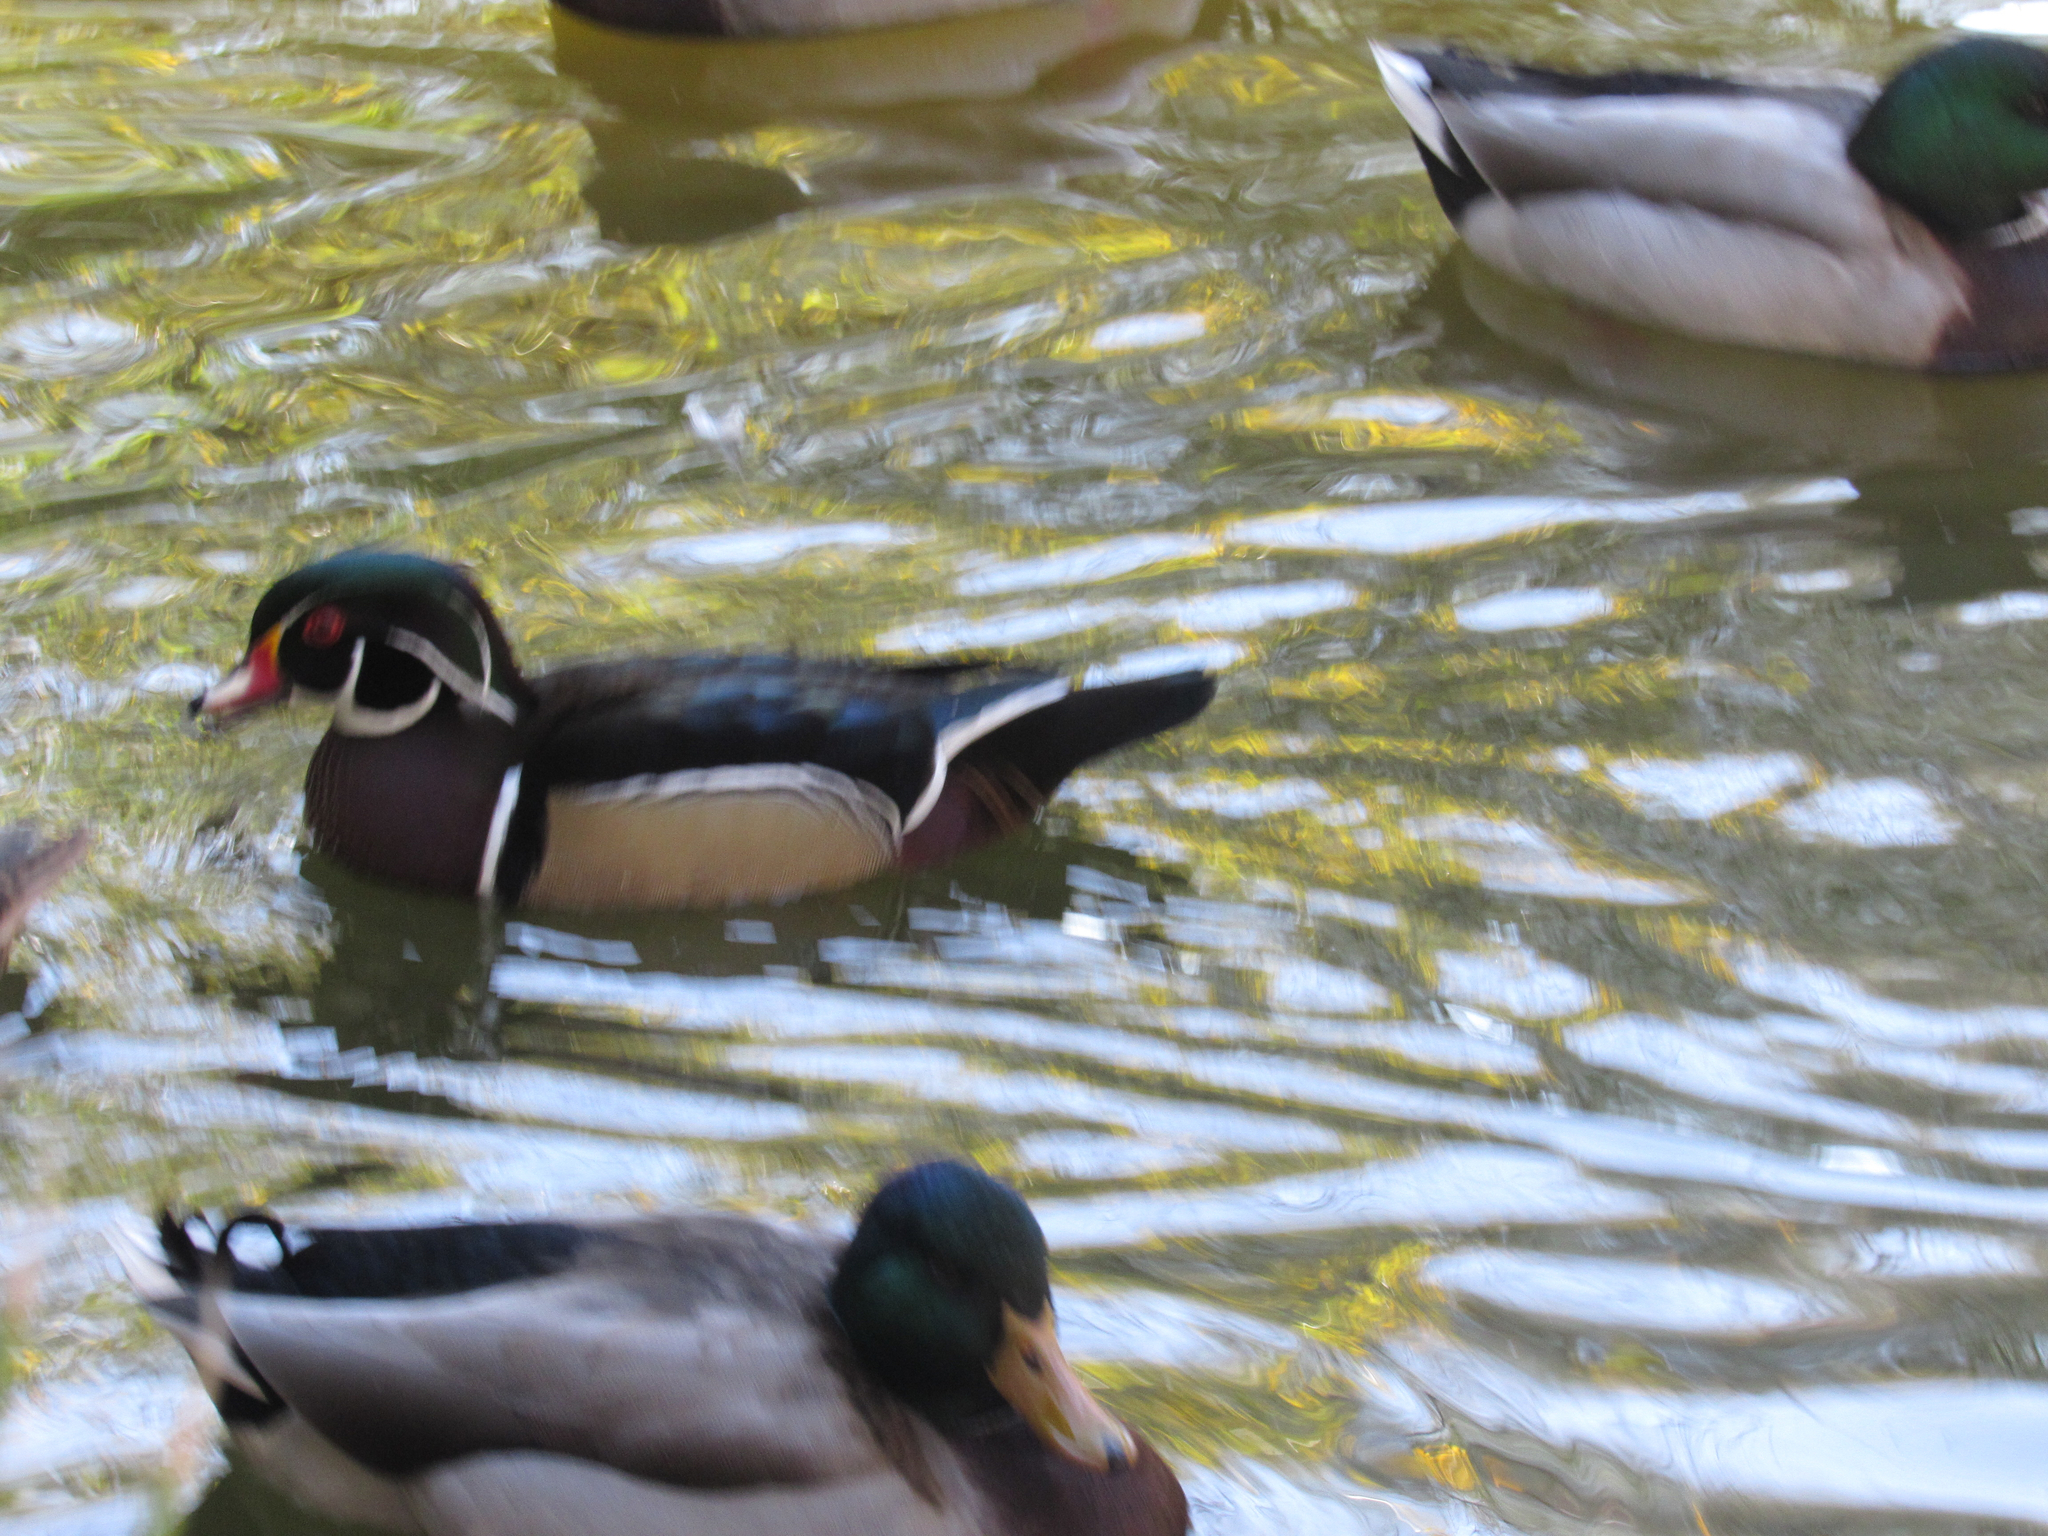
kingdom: Animalia
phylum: Chordata
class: Aves
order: Anseriformes
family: Anatidae
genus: Aix
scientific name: Aix sponsa
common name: Wood duck
